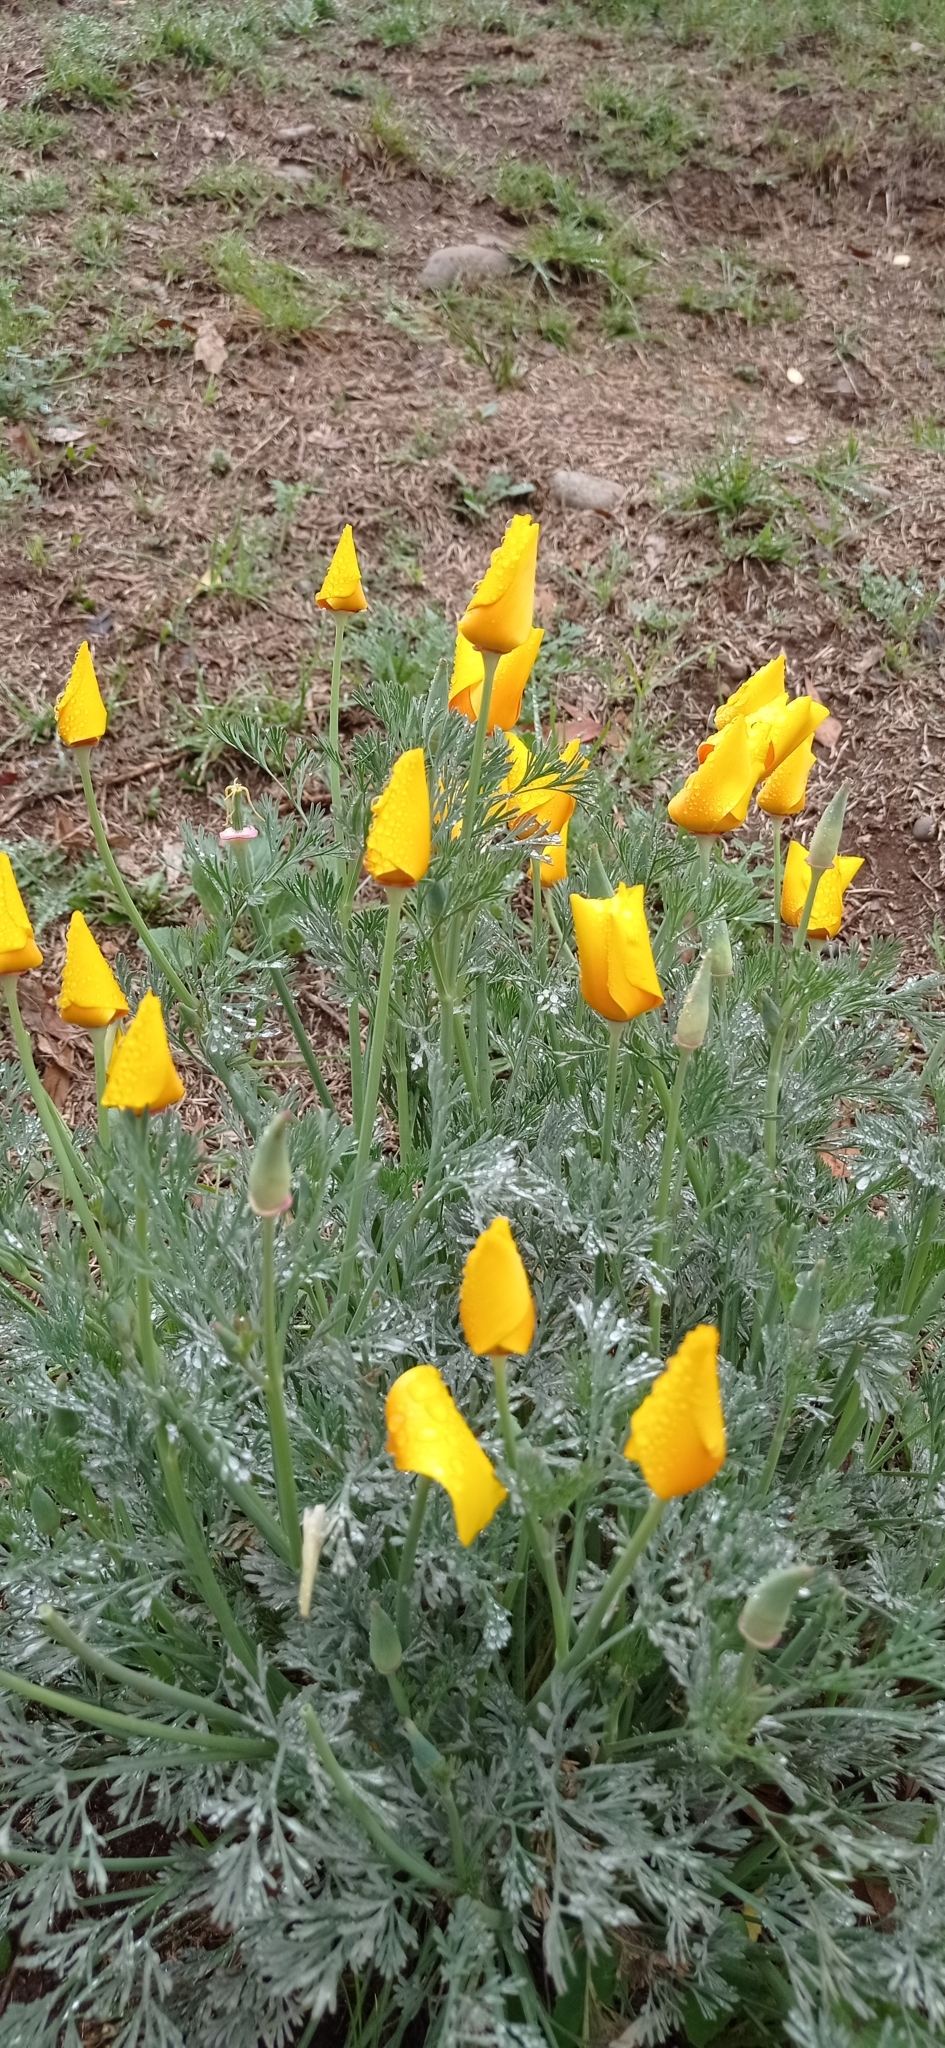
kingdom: Plantae
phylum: Tracheophyta
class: Magnoliopsida
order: Ranunculales
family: Papaveraceae
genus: Eschscholzia
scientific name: Eschscholzia californica
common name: California poppy
